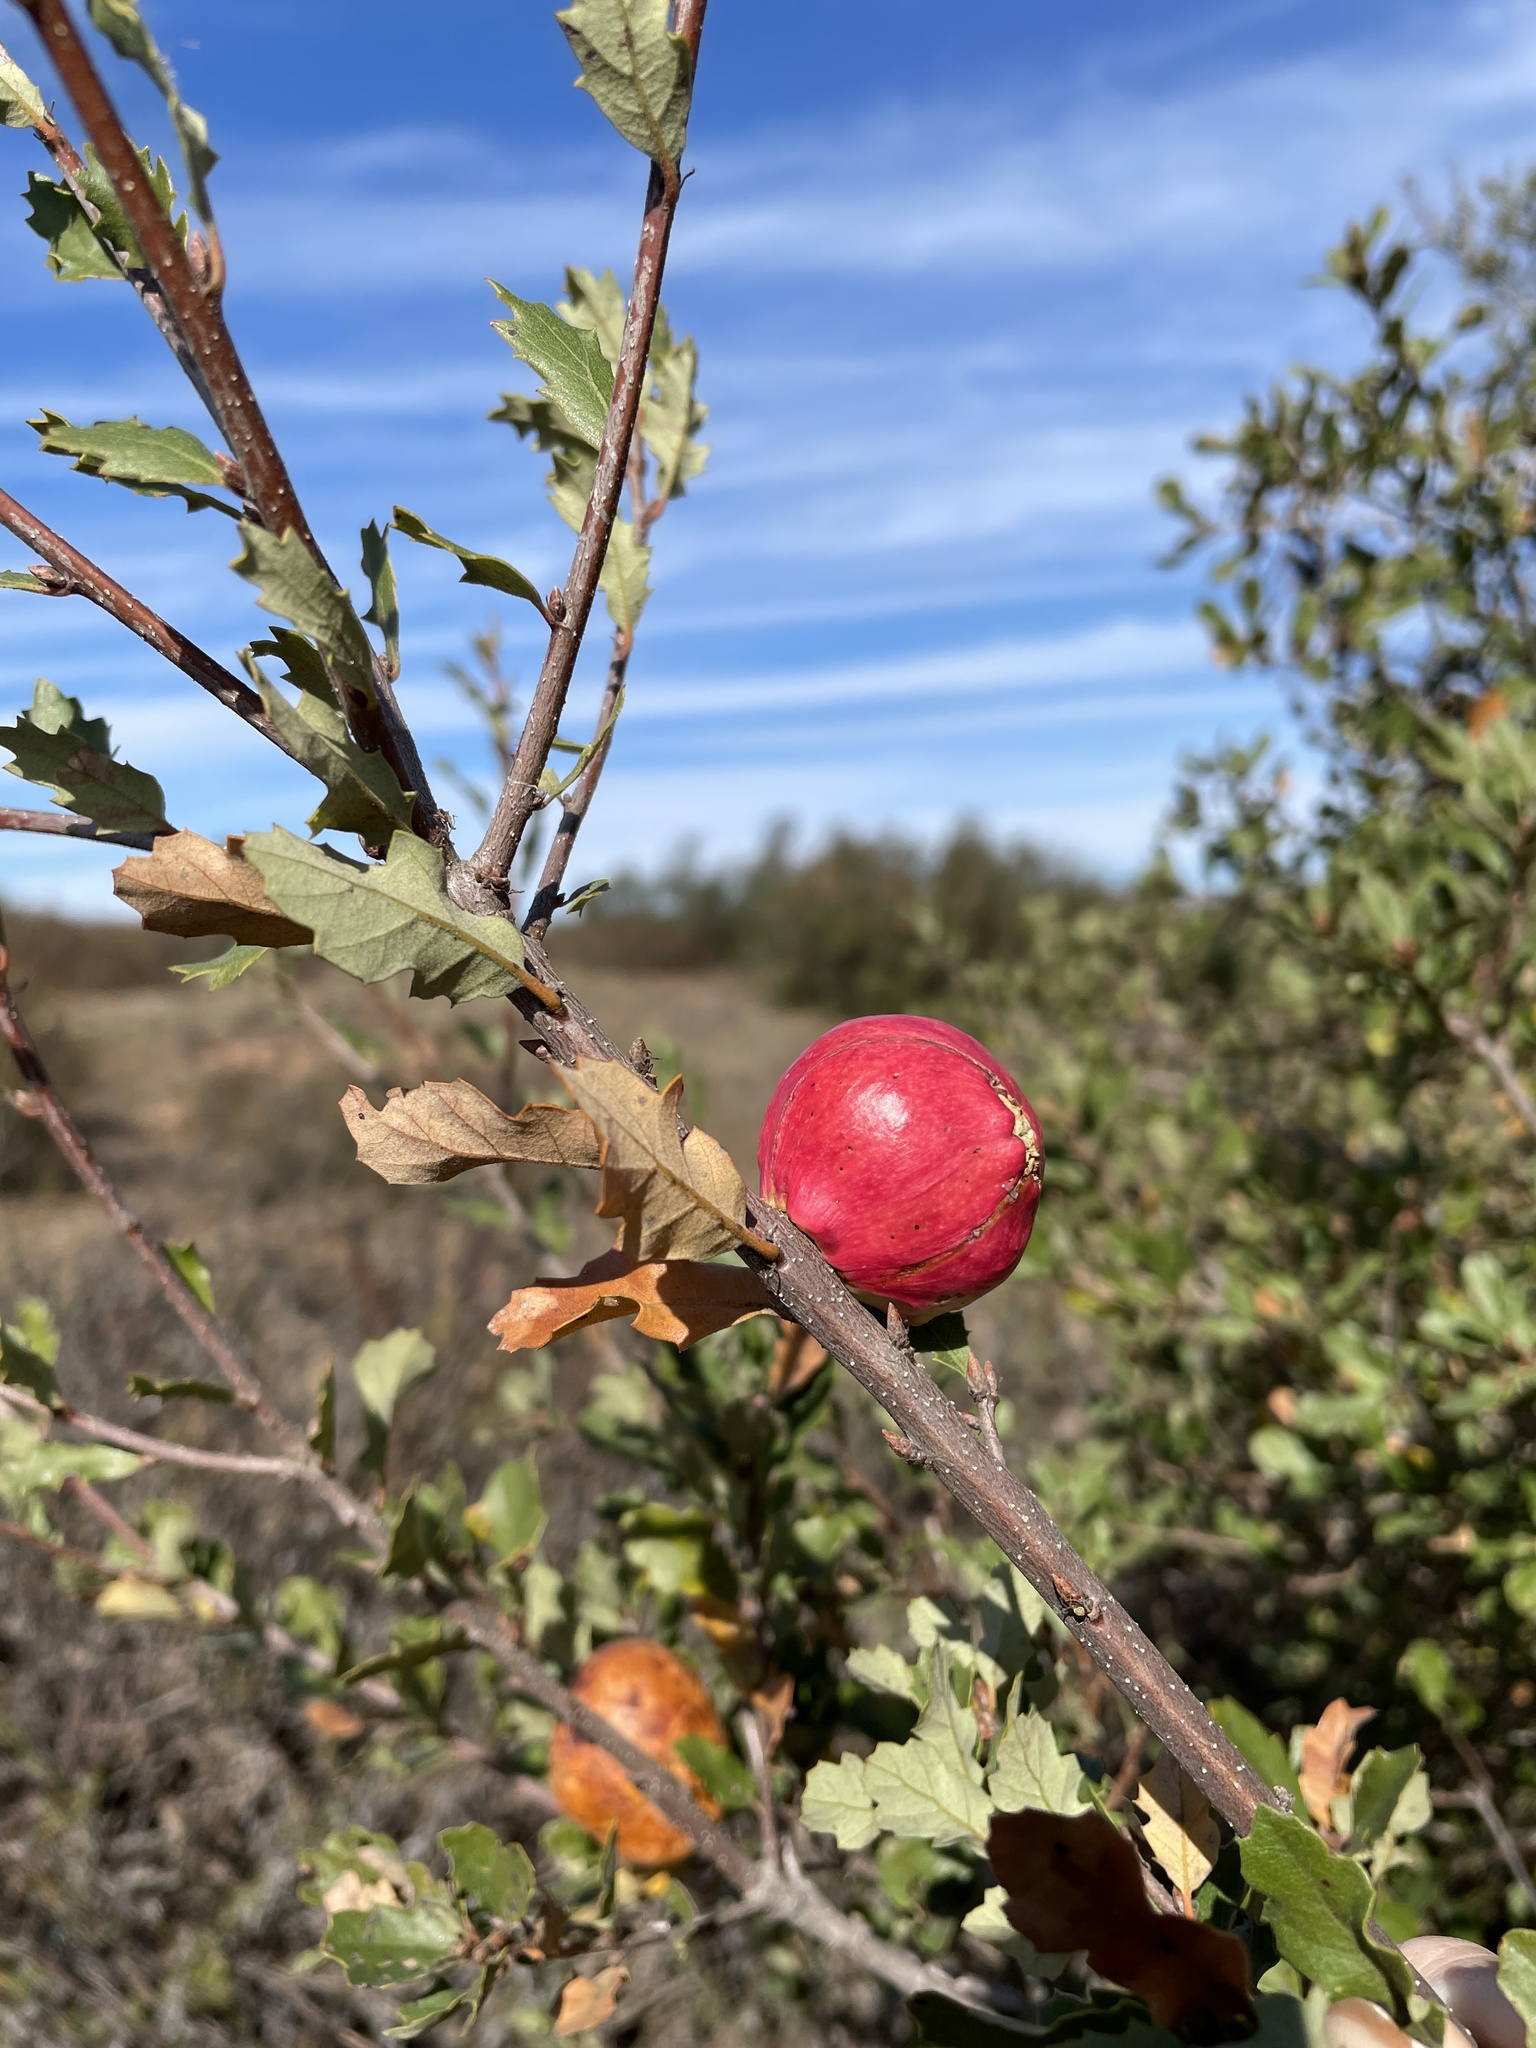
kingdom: Animalia
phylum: Arthropoda
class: Insecta
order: Hymenoptera
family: Cynipidae
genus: Andricus
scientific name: Andricus quercuscalifornicus
